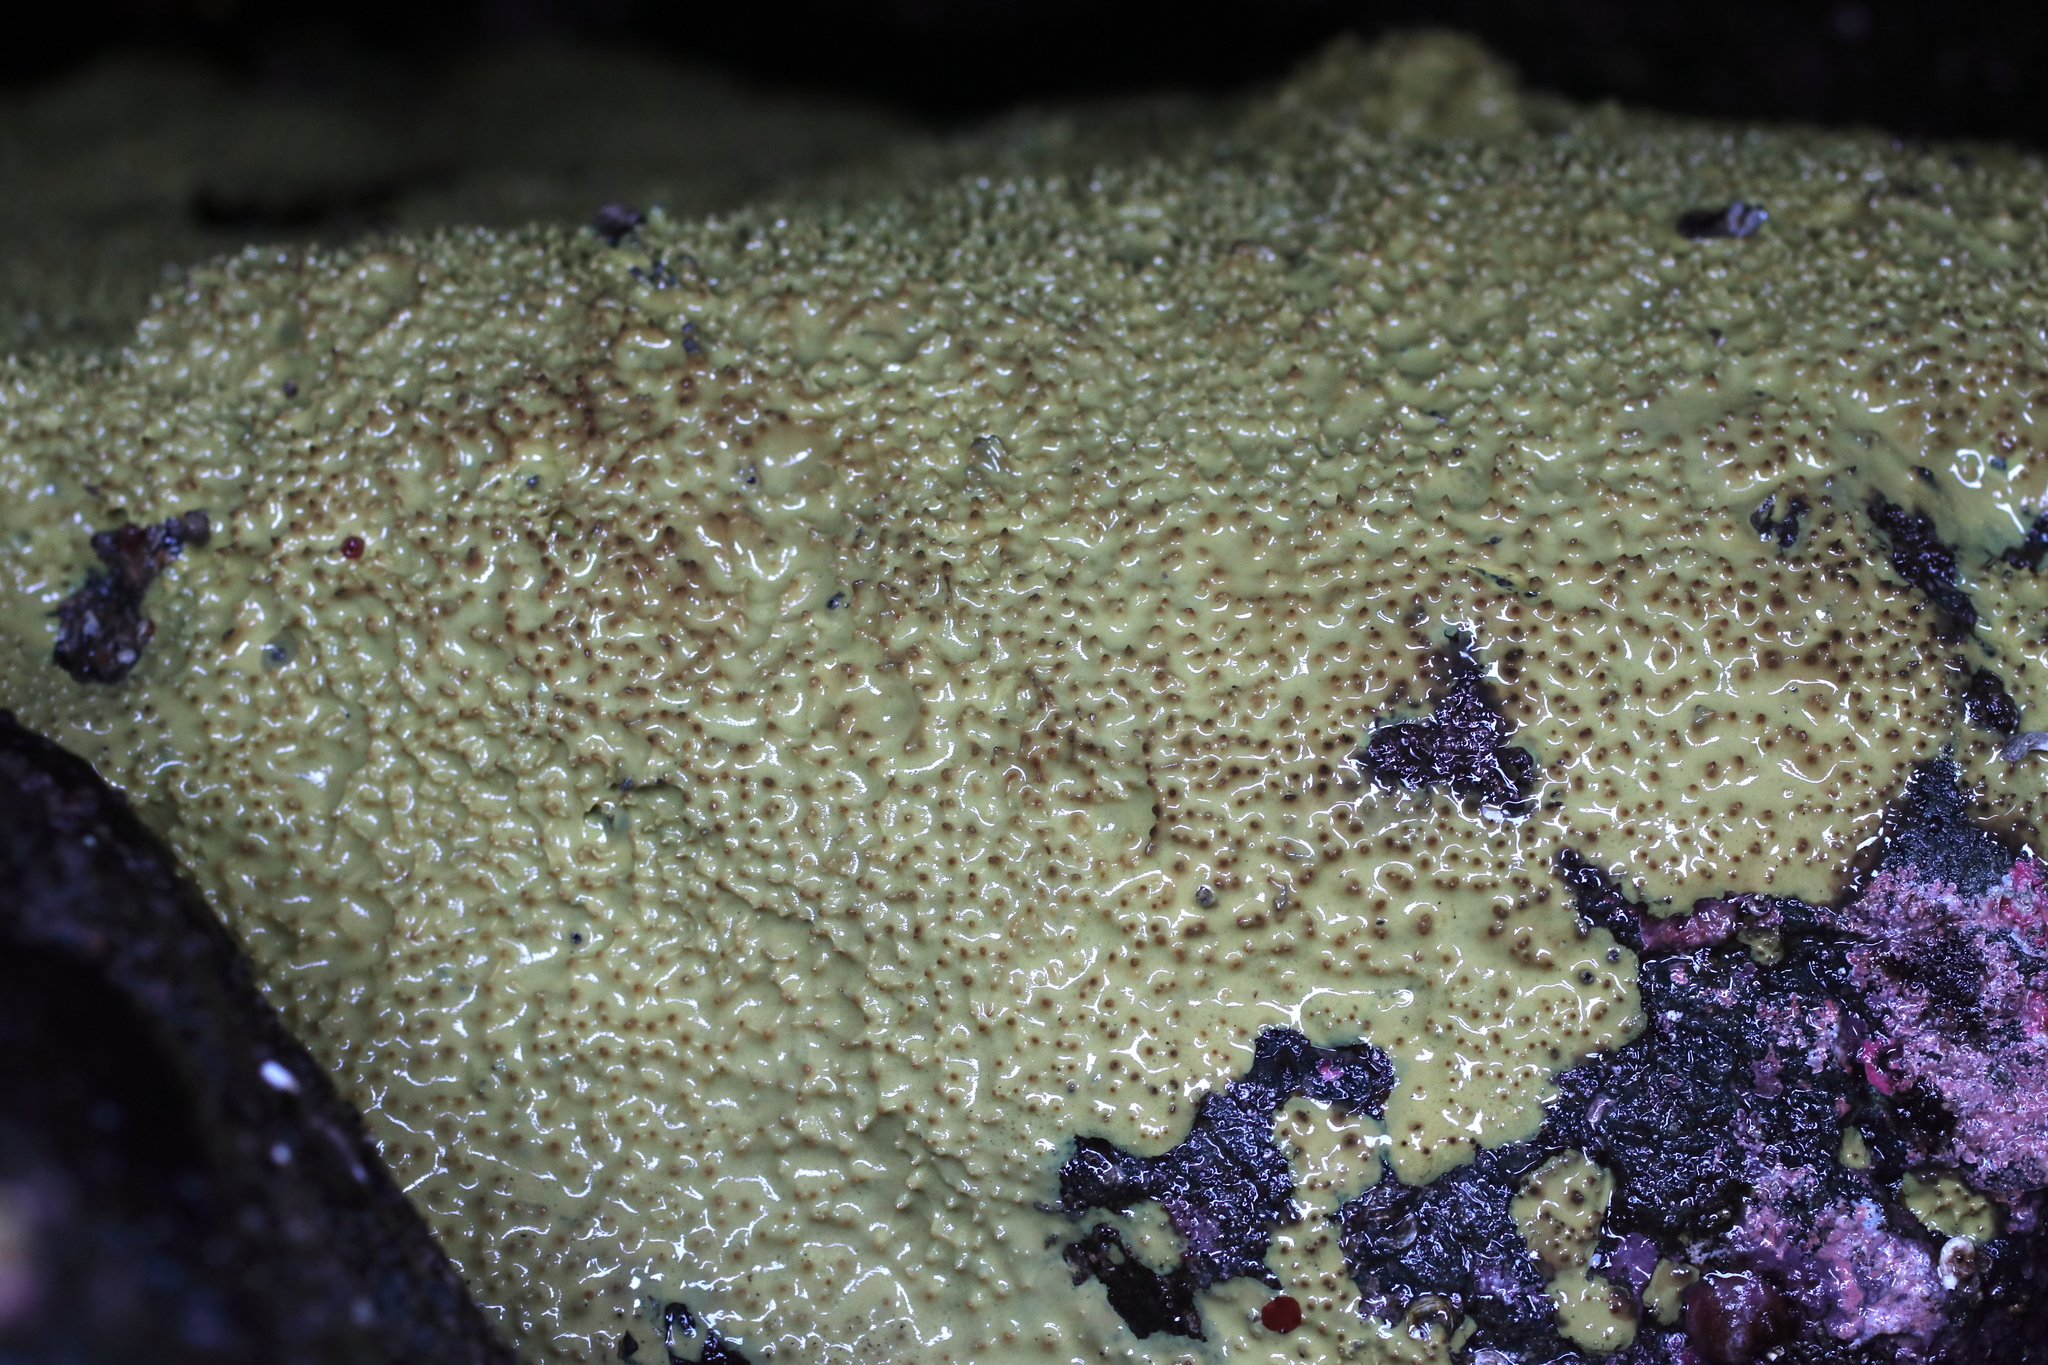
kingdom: Animalia
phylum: Porifera
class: Demospongiae
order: Dendroceratida
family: Darwinellidae
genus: Aplysilla
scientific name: Aplysilla glacialis
